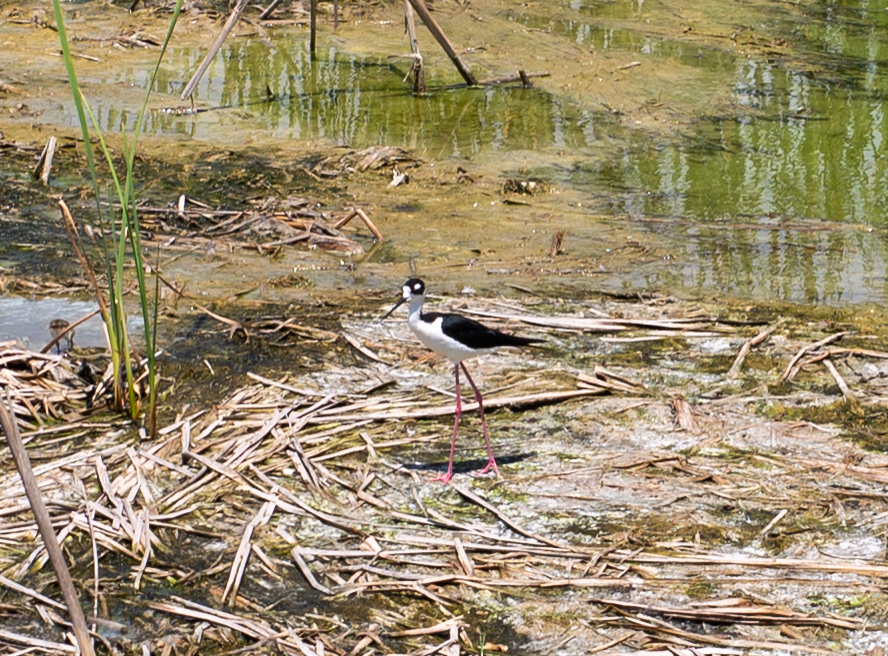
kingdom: Animalia
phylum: Chordata
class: Aves
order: Charadriiformes
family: Recurvirostridae
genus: Himantopus
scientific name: Himantopus mexicanus
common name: Black-necked stilt
